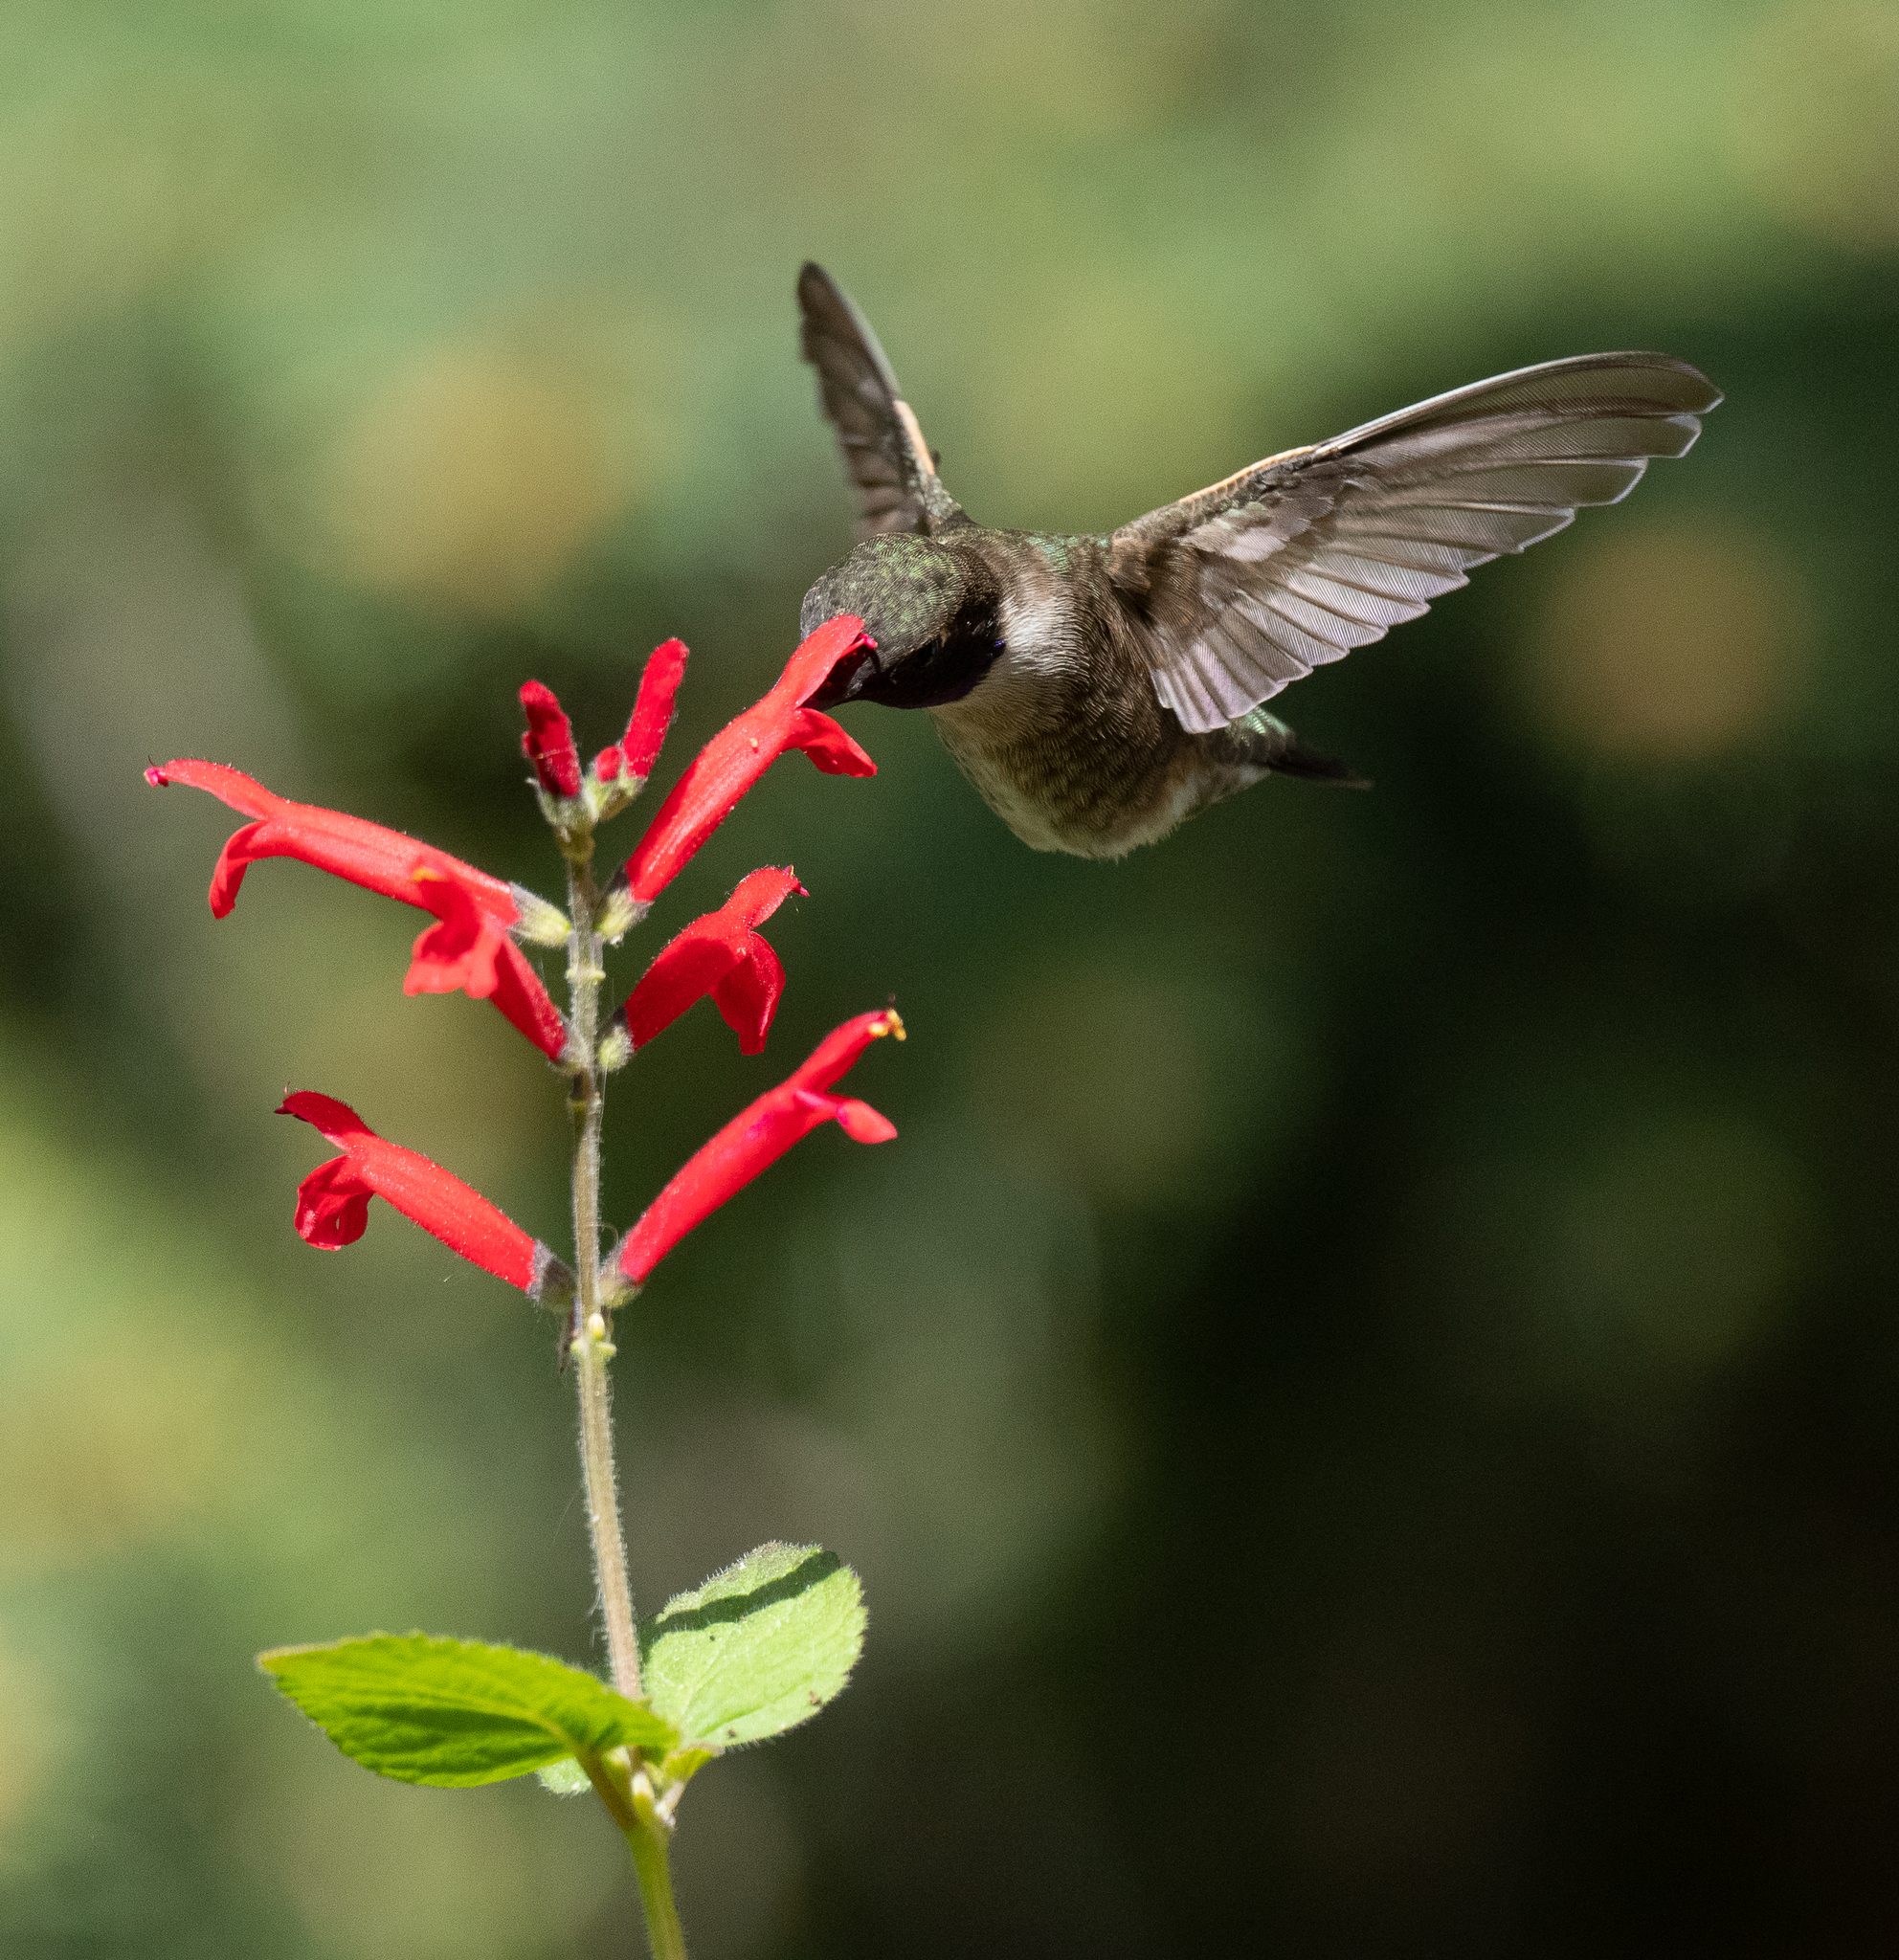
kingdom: Animalia
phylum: Chordata
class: Aves
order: Apodiformes
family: Trochilidae
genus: Archilochus
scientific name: Archilochus alexandri
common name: Black-chinned hummingbird
